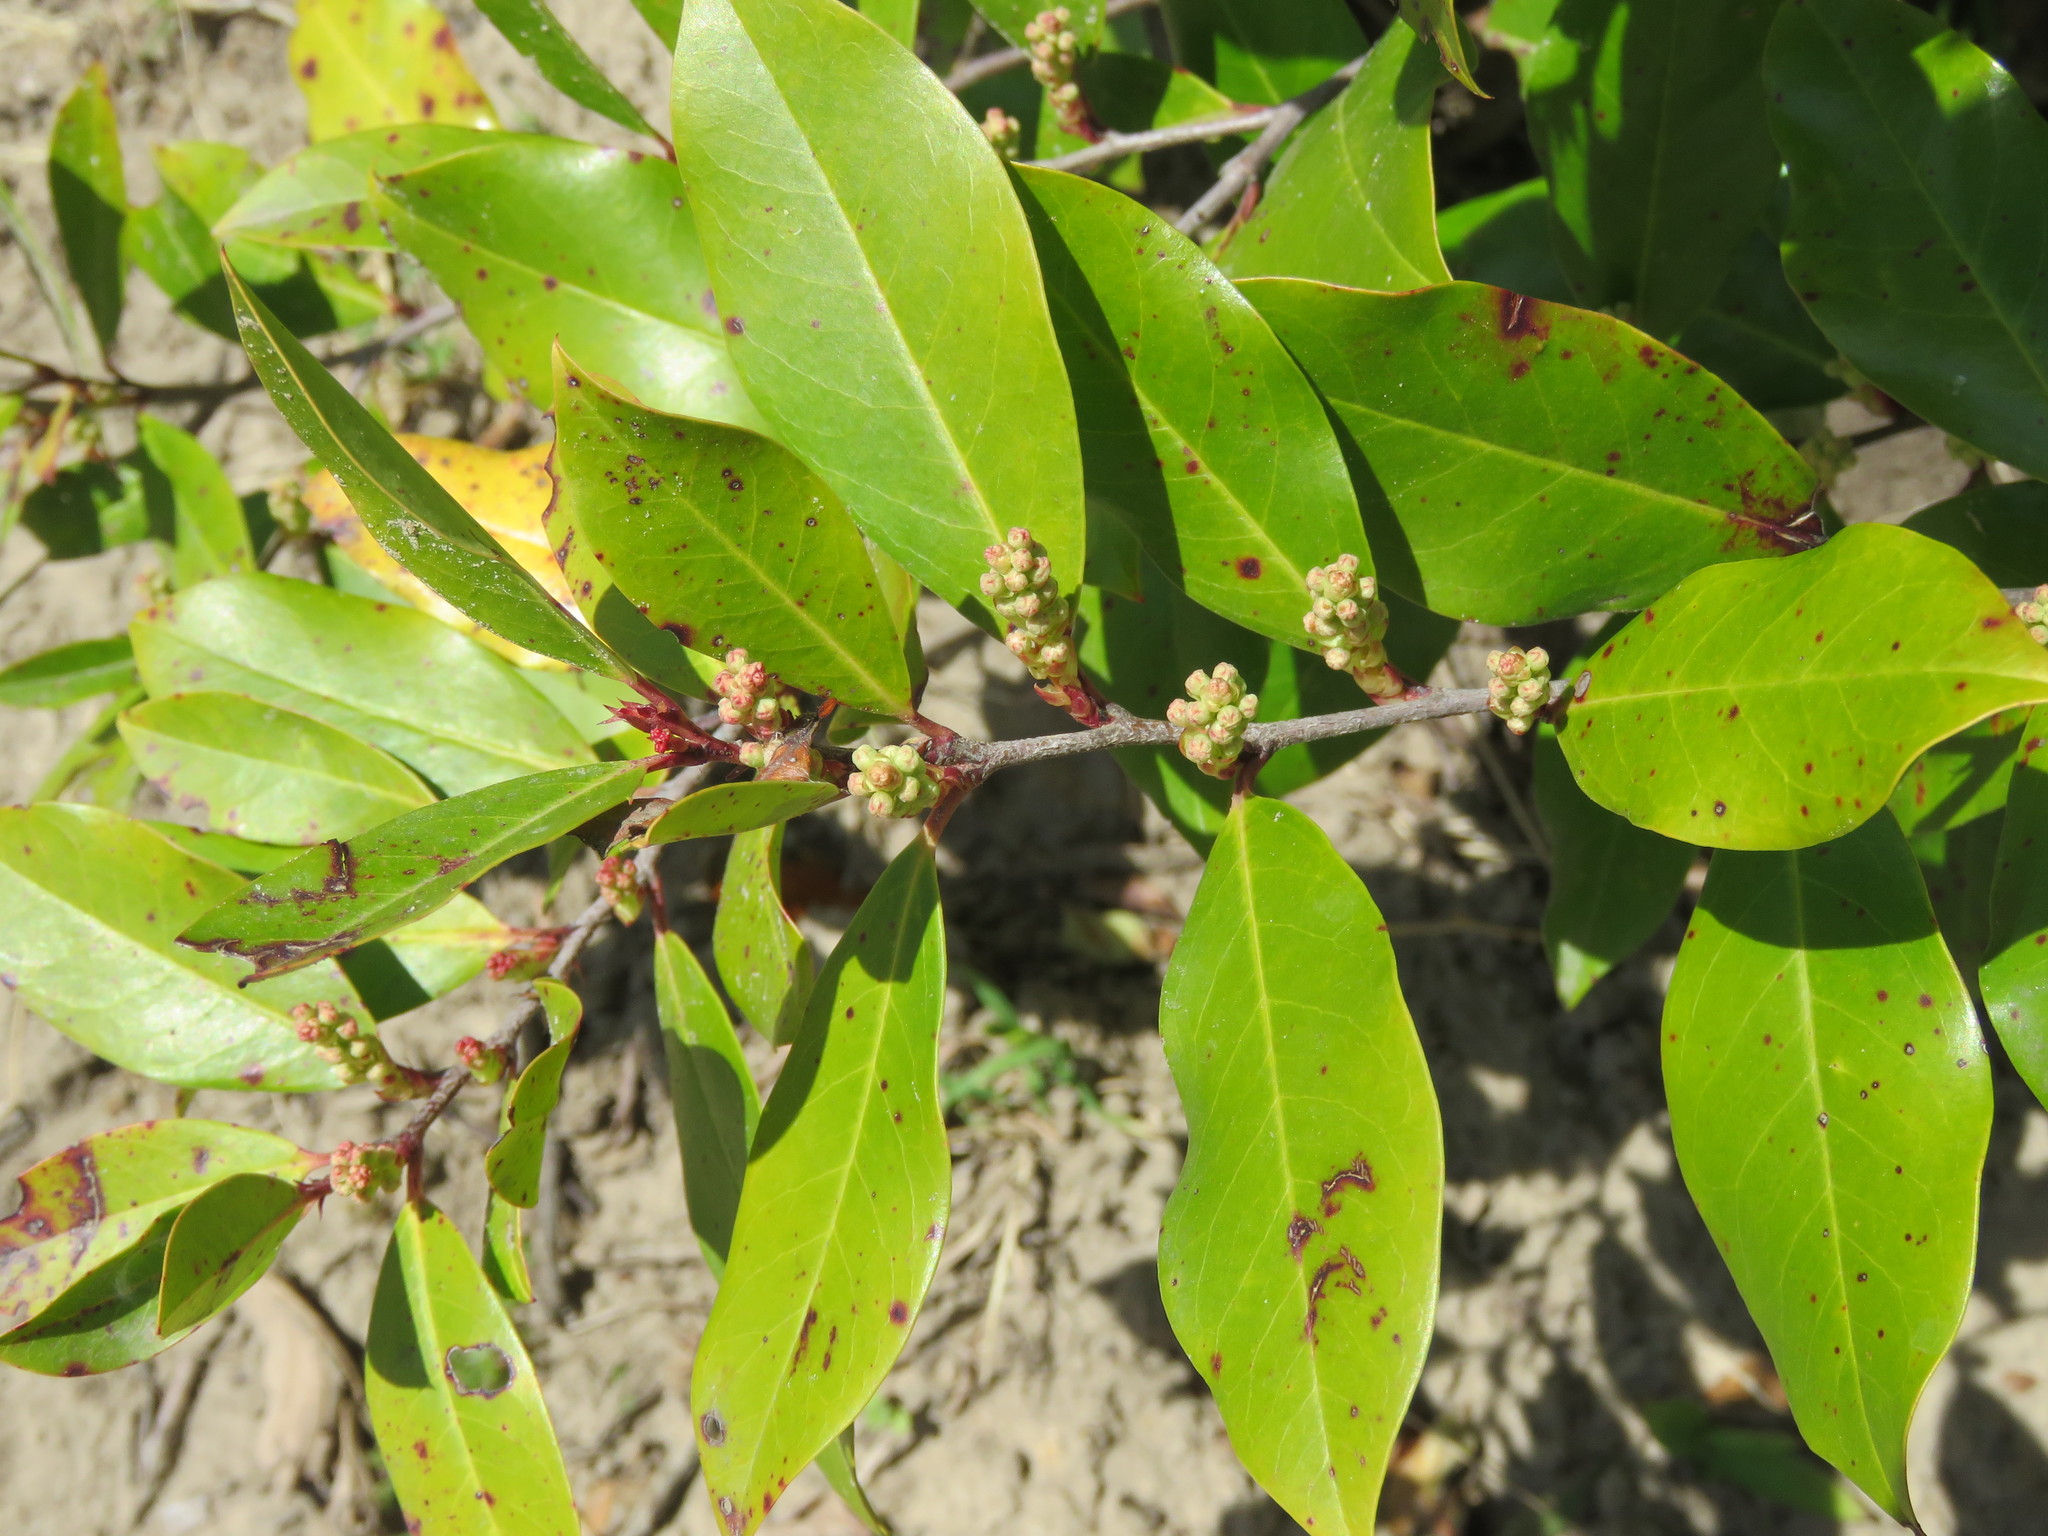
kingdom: Plantae
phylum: Tracheophyta
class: Magnoliopsida
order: Rosales
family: Rosaceae
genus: Prunus
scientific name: Prunus caroliniana
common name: Carolina laurel cherry
